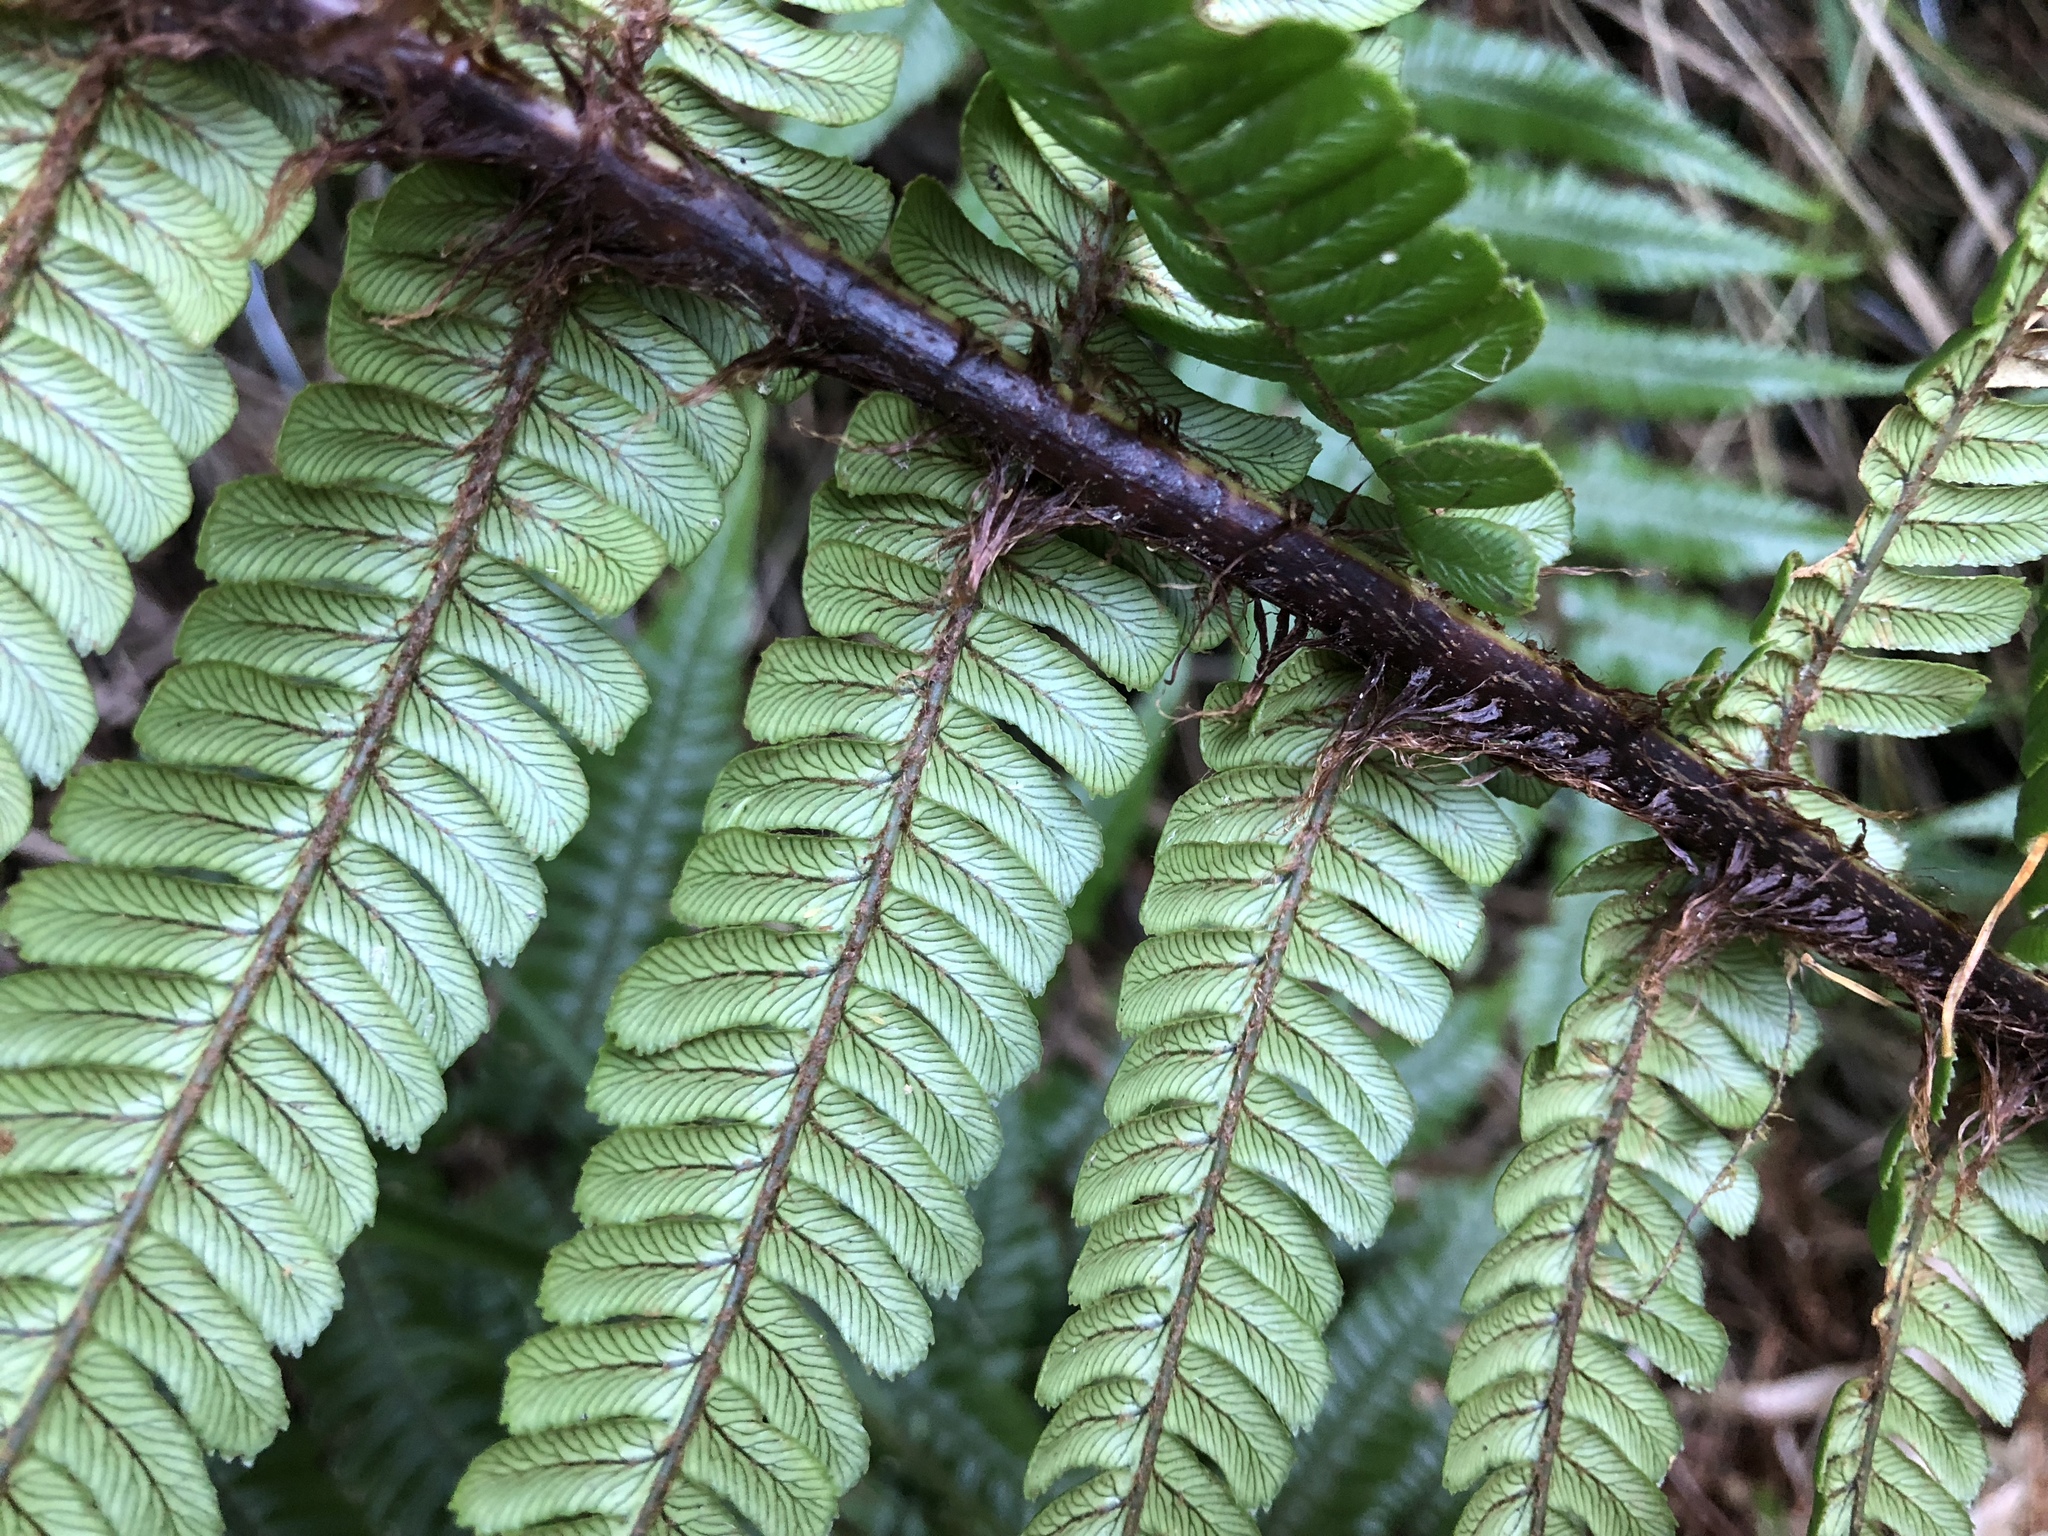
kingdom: Plantae
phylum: Tracheophyta
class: Polypodiopsida
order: Polypodiales
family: Dryopteridaceae
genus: Dryopteris
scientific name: Dryopteris wallichiana
